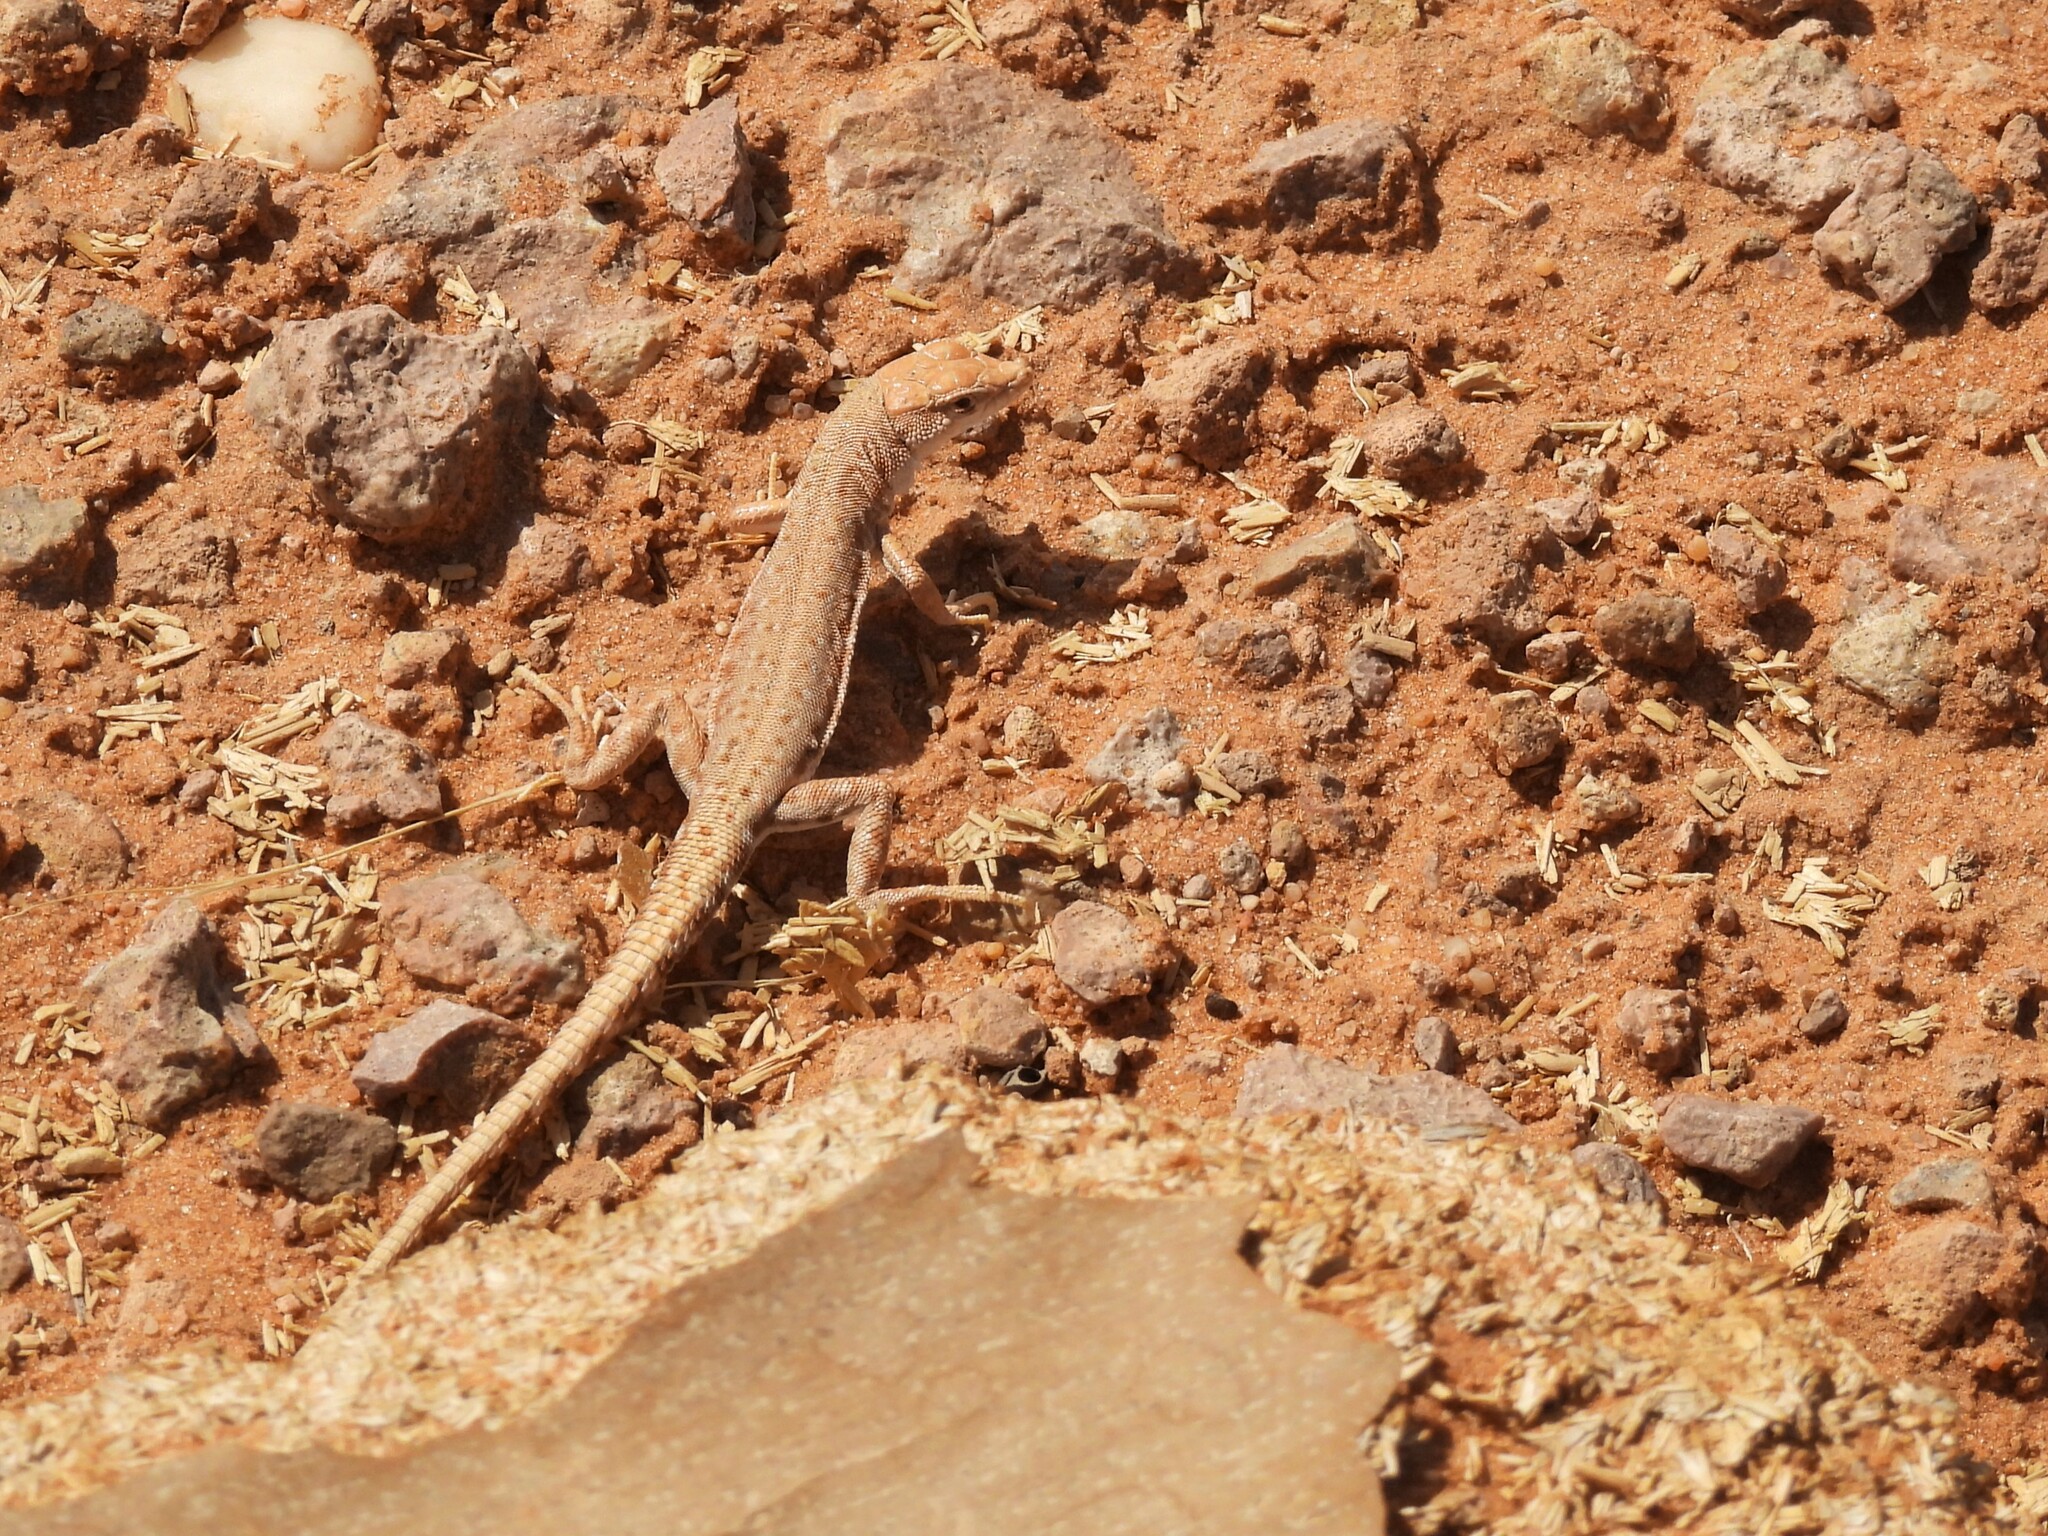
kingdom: Animalia
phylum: Chordata
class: Squamata
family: Lacertidae
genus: Mesalina
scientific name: Mesalina brevirostris
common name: Blanford's short-nosed desert lizard
